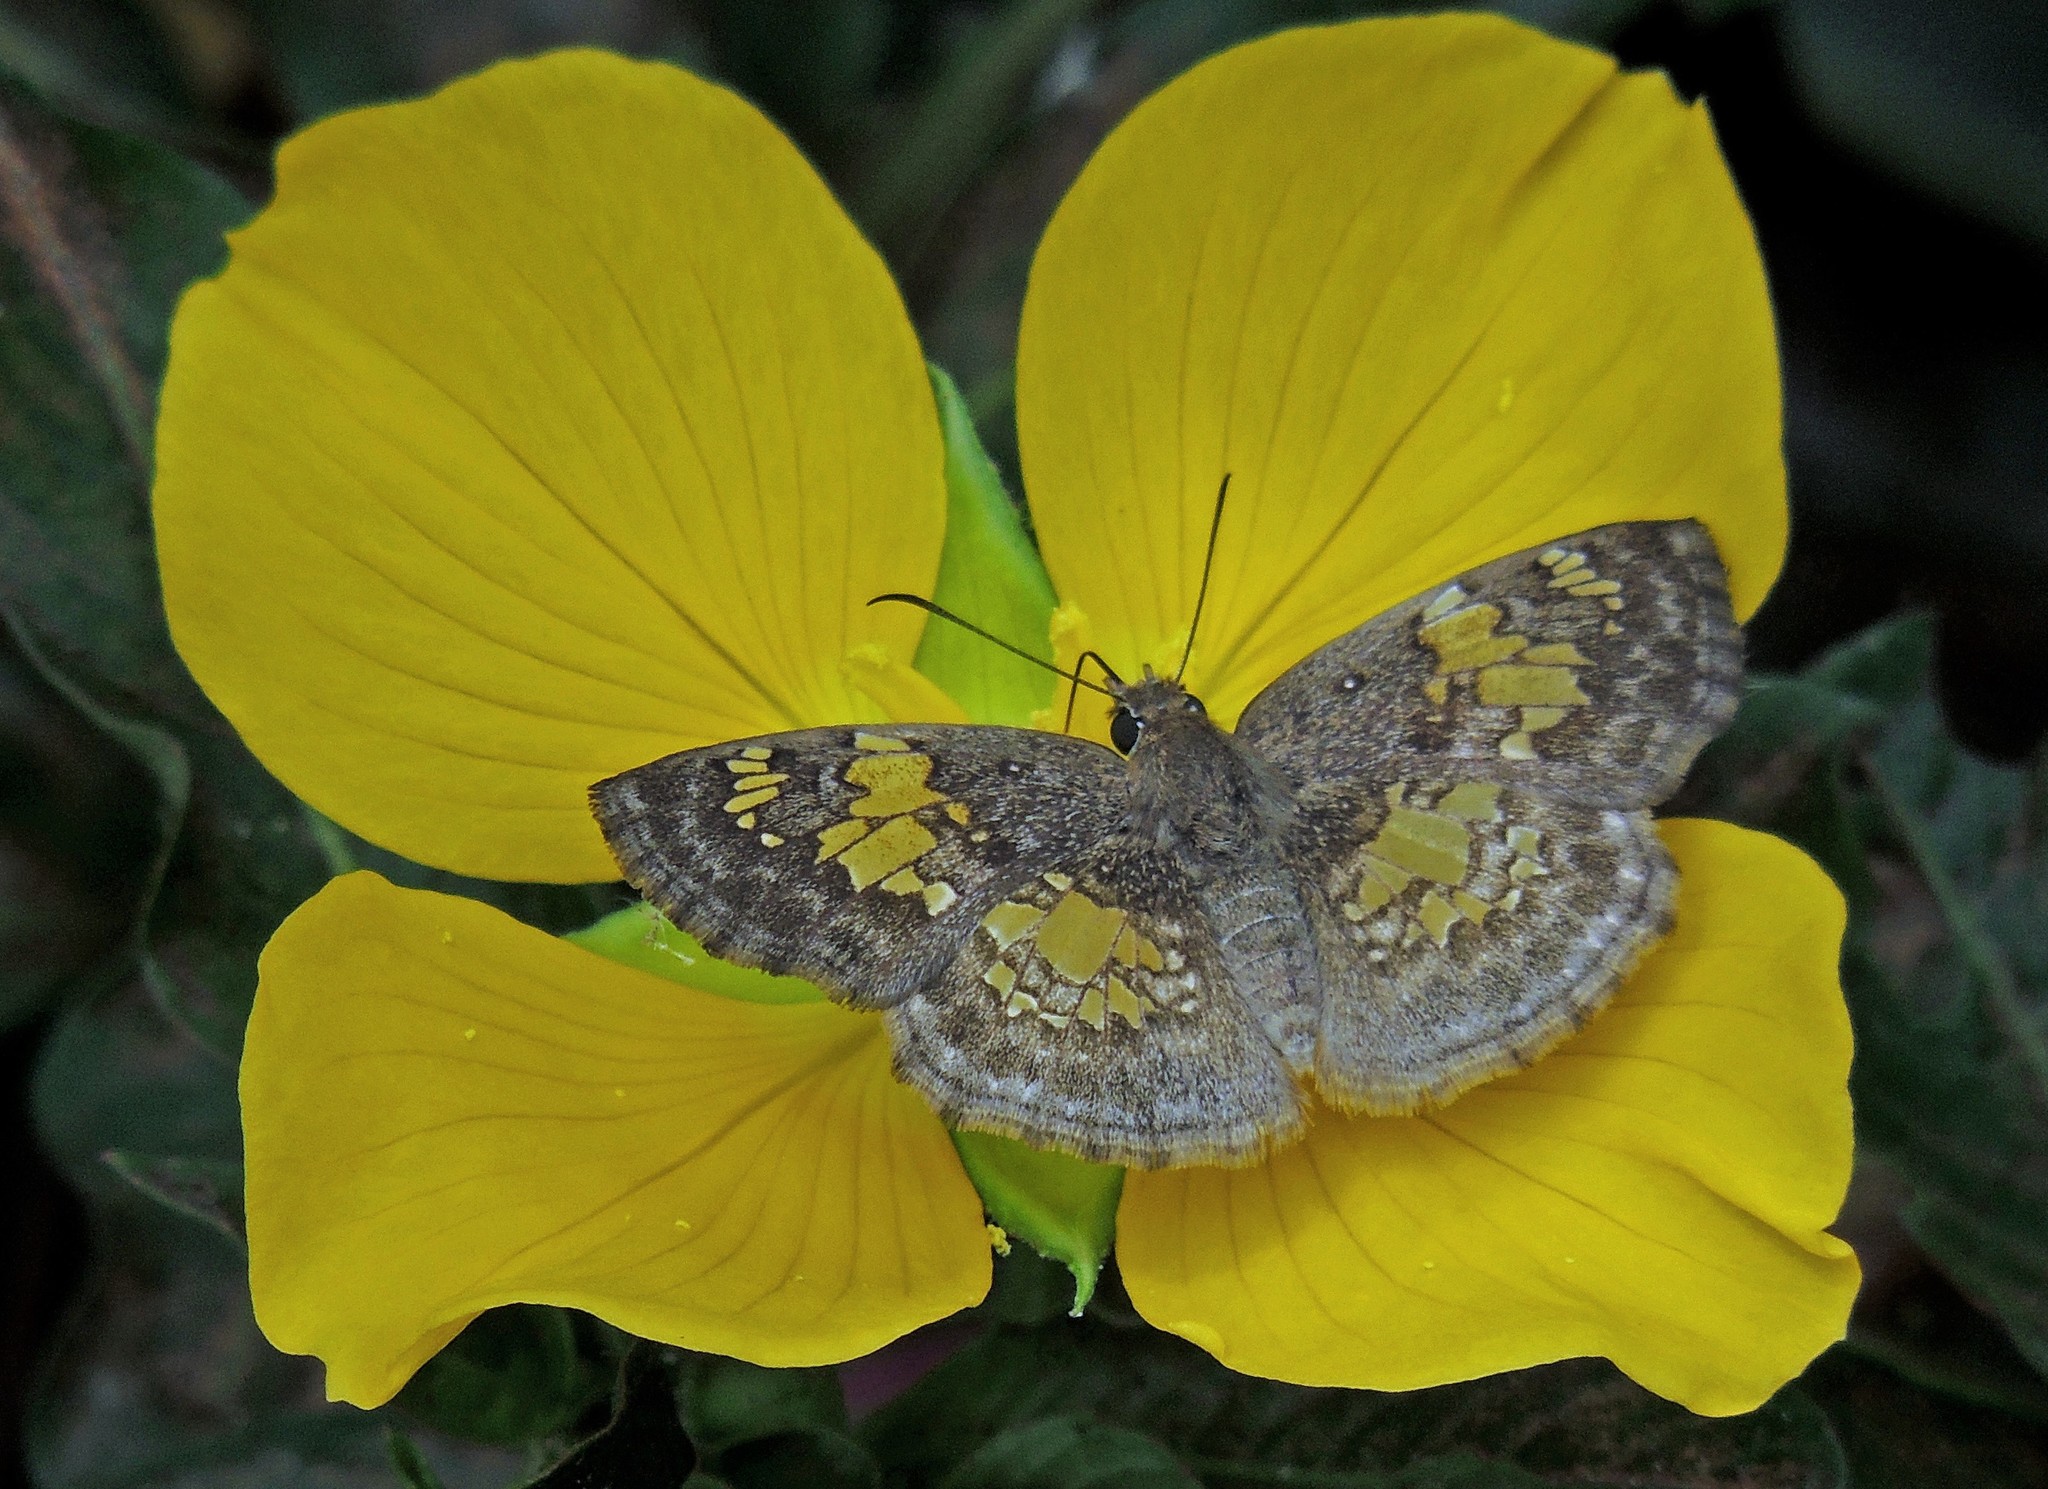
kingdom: Animalia
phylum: Arthropoda
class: Insecta
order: Lepidoptera
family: Hesperiidae
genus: Xenophanes
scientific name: Xenophanes tryxus
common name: Glassy-winged skipper
